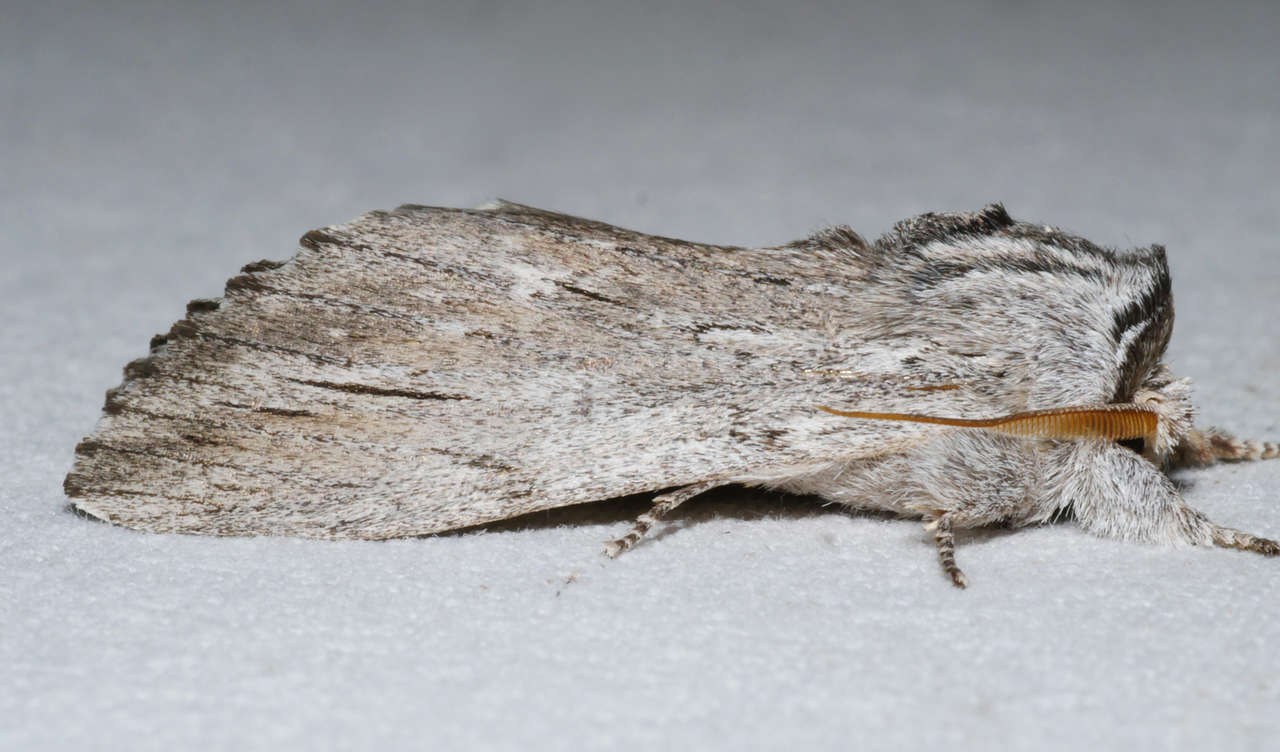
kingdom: Animalia
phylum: Arthropoda
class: Insecta
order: Lepidoptera
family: Notodontidae
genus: Destolmia
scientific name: Destolmia lineata
